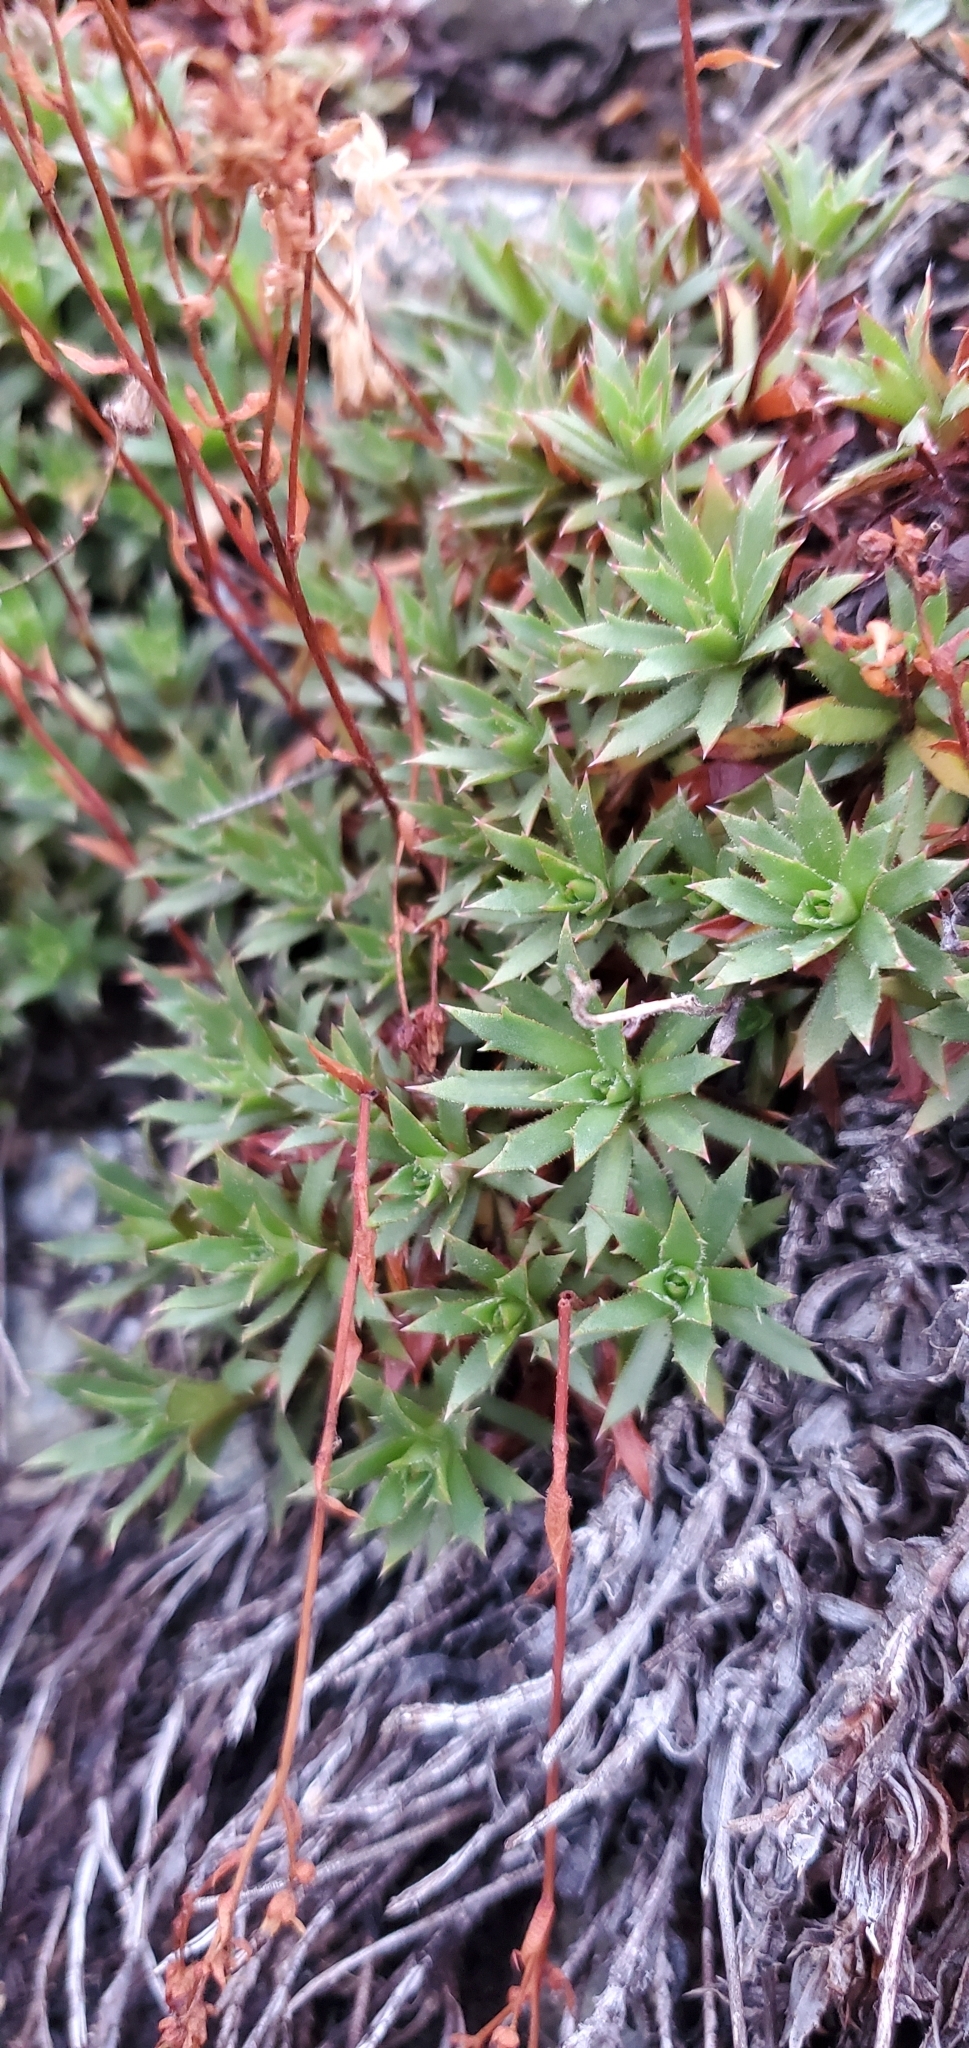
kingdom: Plantae
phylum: Tracheophyta
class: Magnoliopsida
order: Saxifragales
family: Saxifragaceae
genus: Saxifraga
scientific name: Saxifraga tricuspidata
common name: Prickly saxifrage
